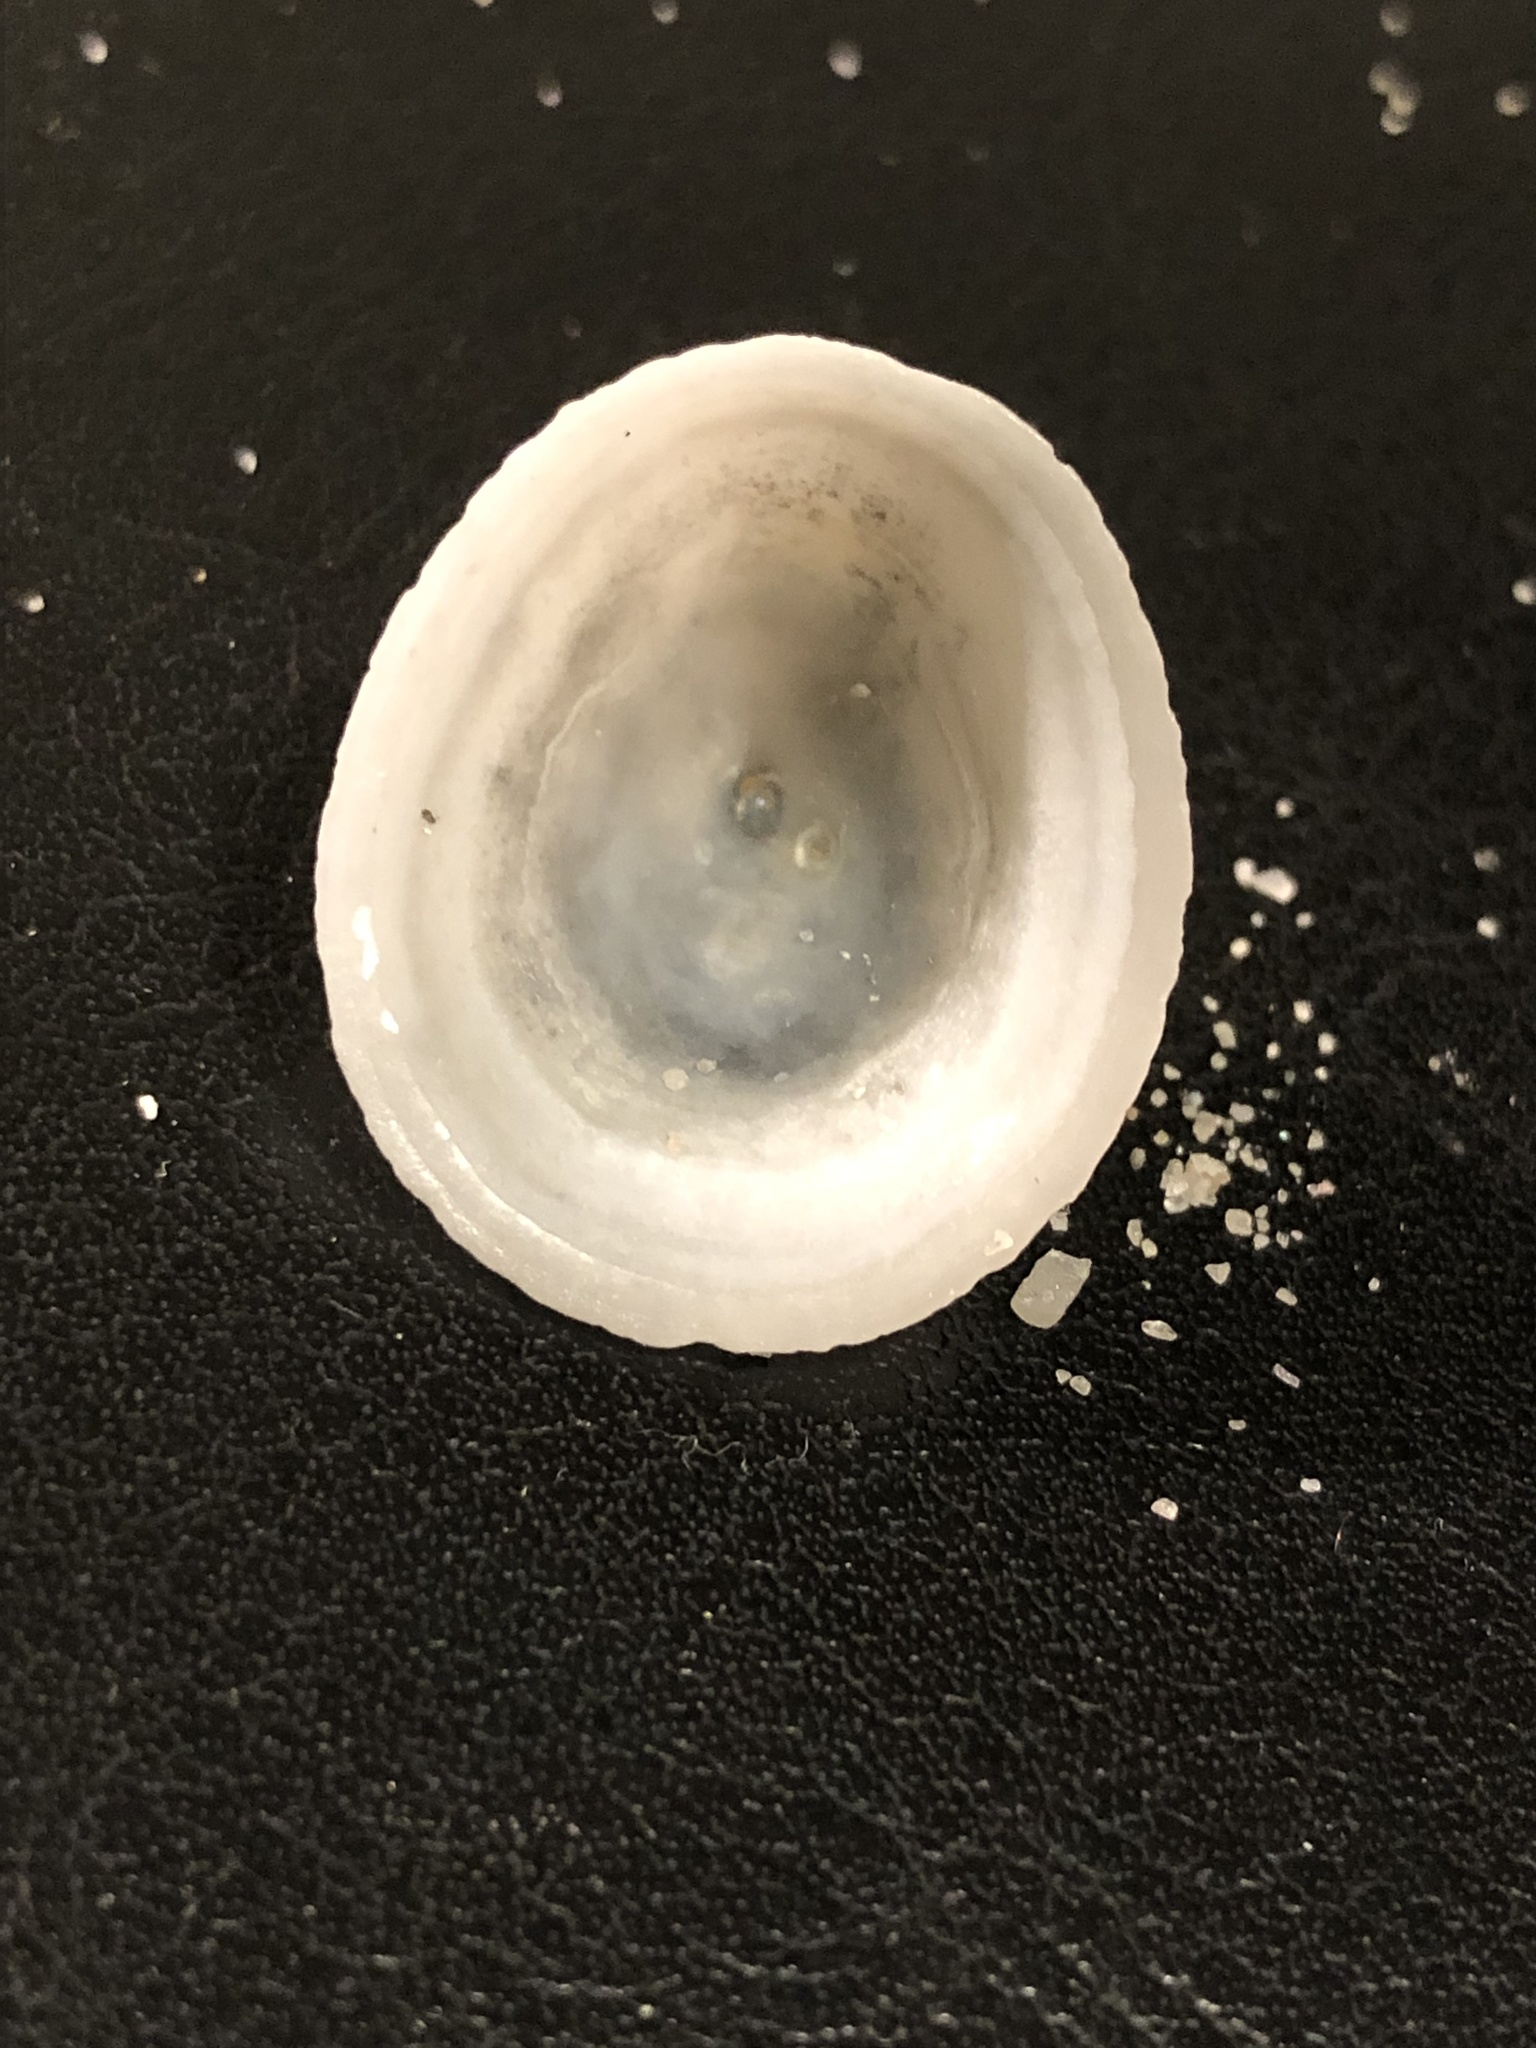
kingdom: Animalia
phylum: Mollusca
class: Gastropoda
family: Acmaeidae
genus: Acmaea
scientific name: Acmaea mitra
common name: Pacific white cap limpet
